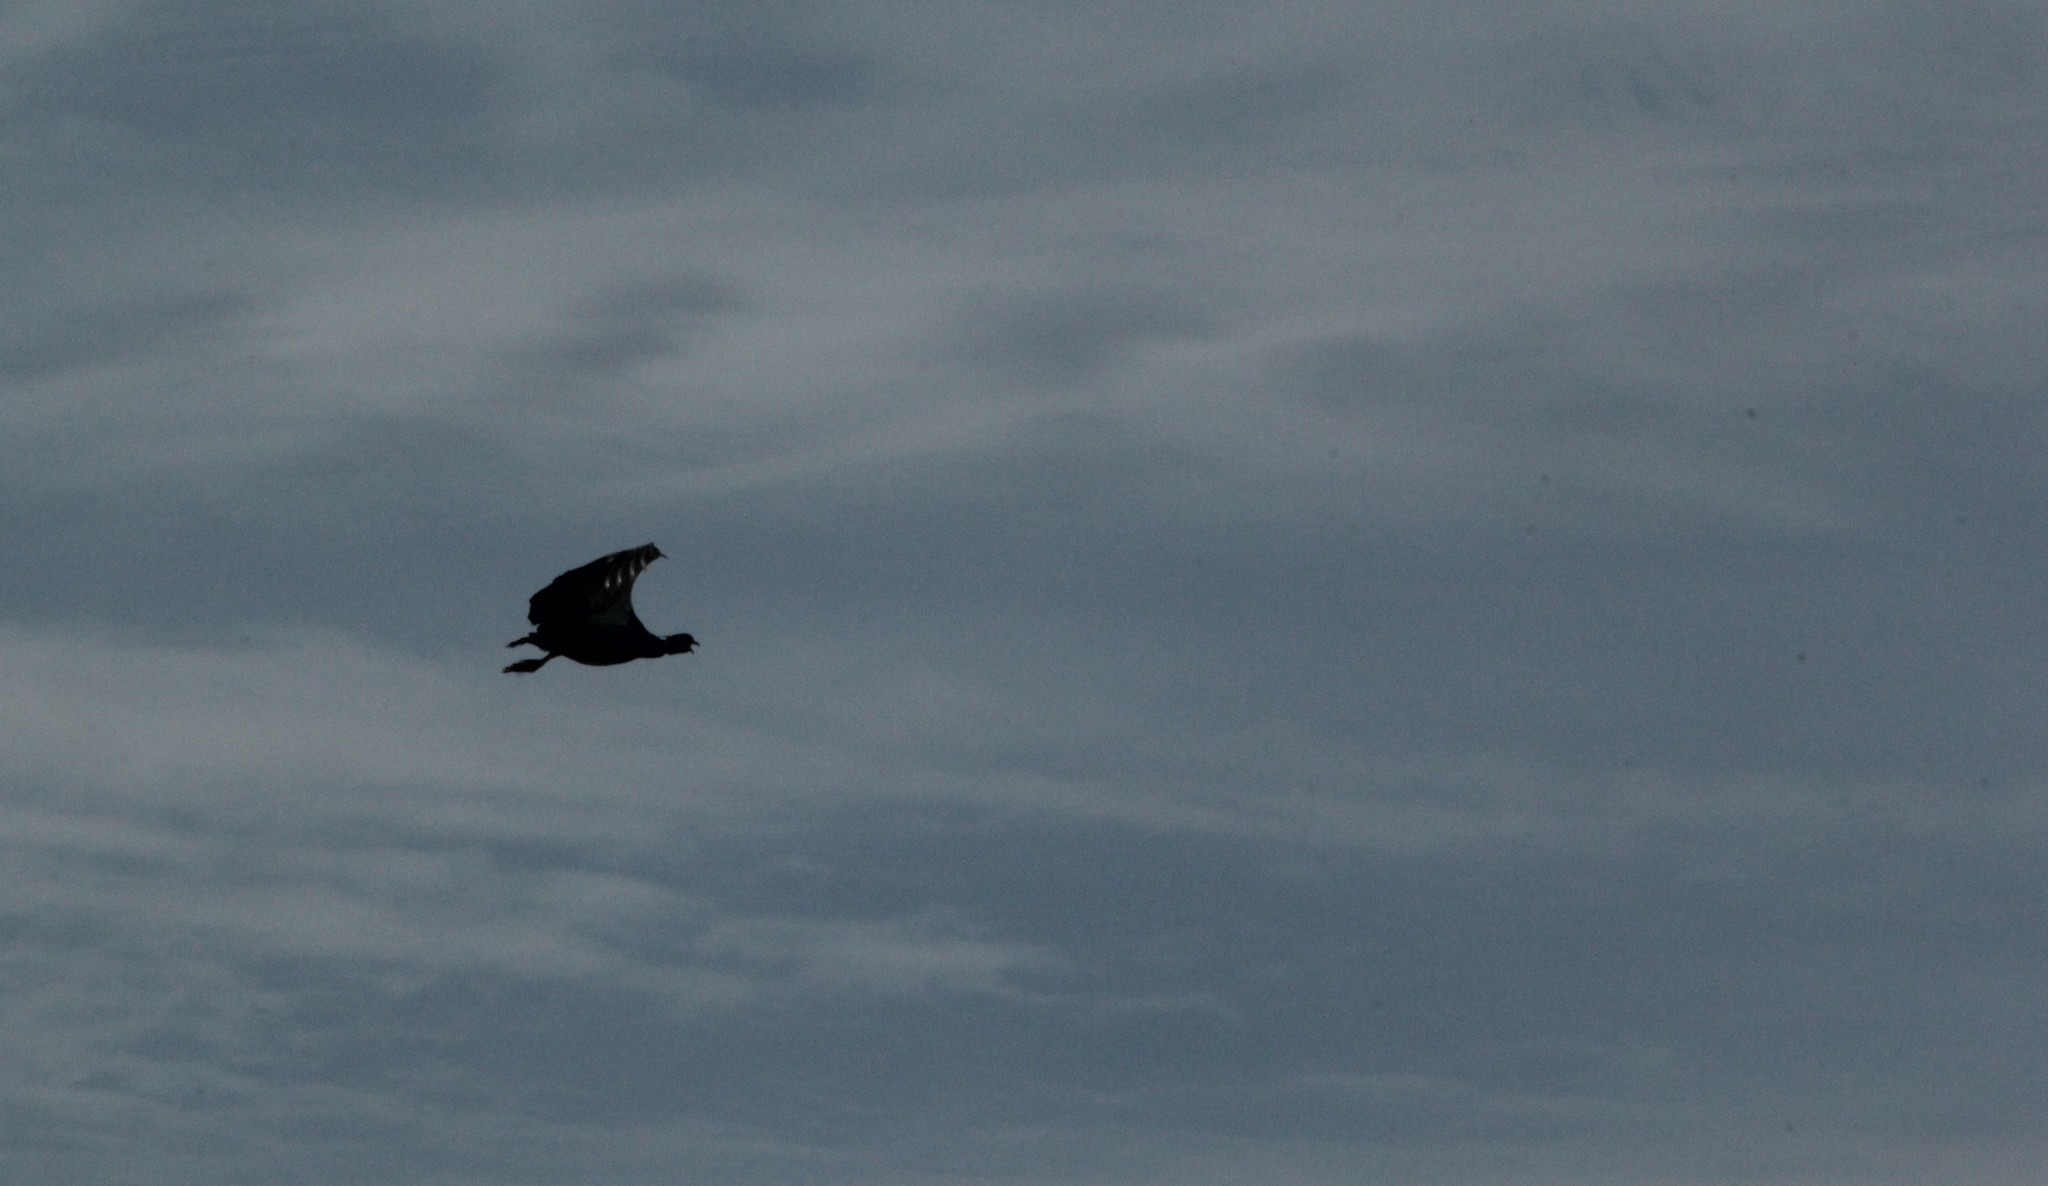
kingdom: Animalia
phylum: Chordata
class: Aves
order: Anseriformes
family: Anhimidae
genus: Chauna
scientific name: Chauna torquata
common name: Southern screamer
